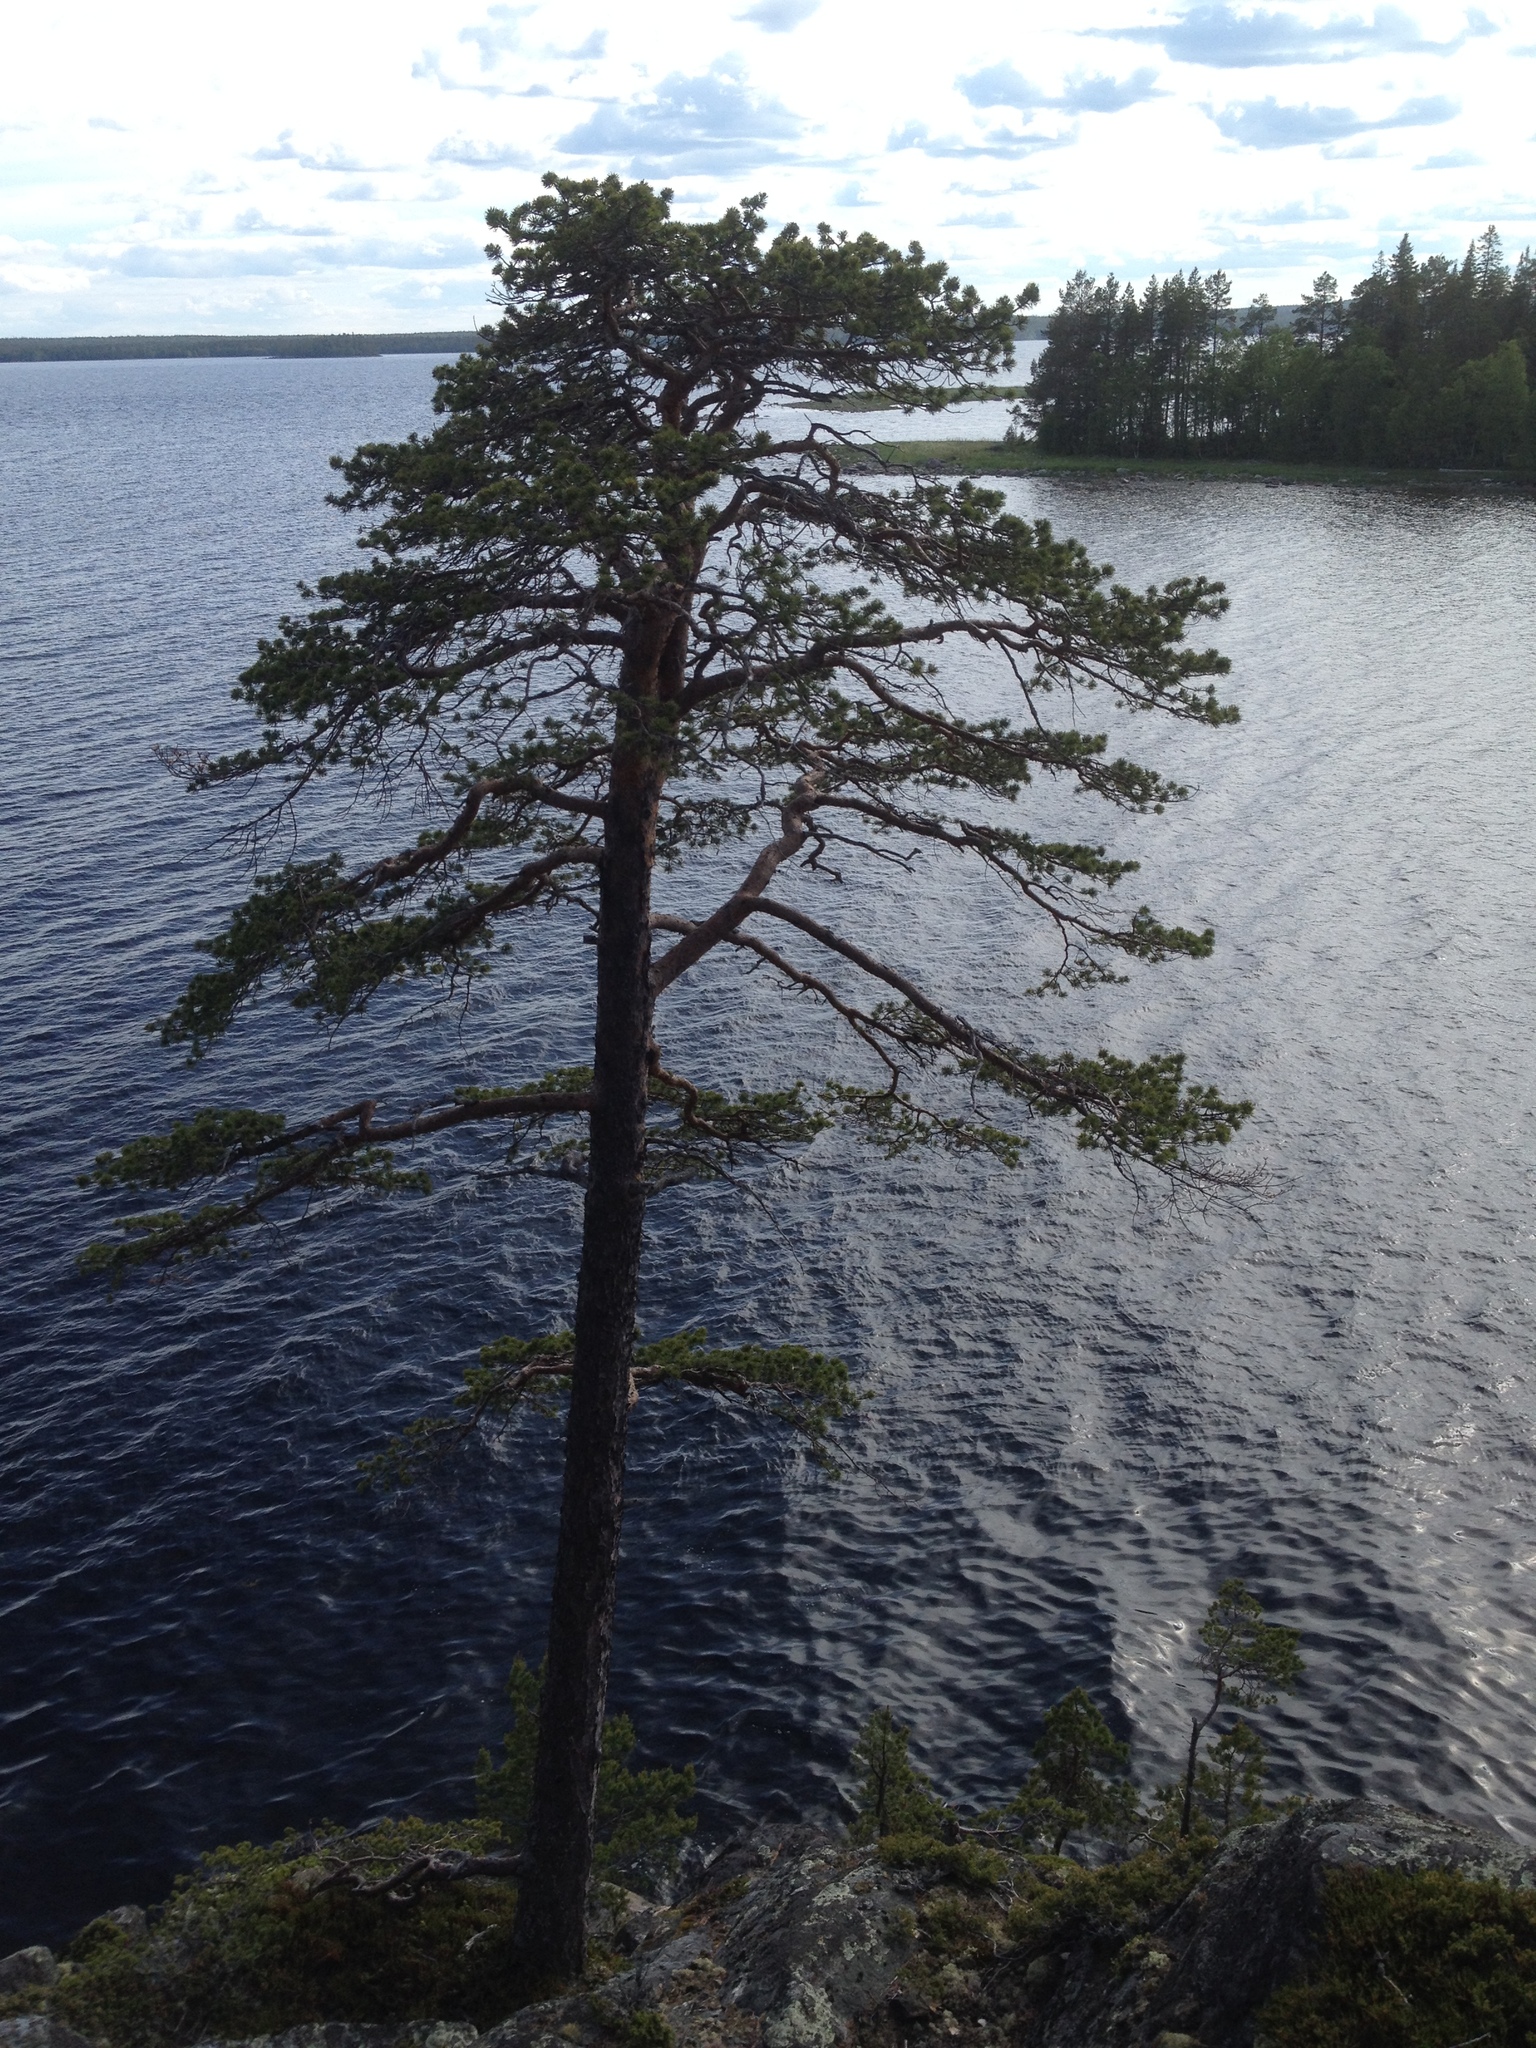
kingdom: Plantae
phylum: Tracheophyta
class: Pinopsida
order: Pinales
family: Pinaceae
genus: Pinus
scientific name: Pinus sylvestris
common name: Scots pine
